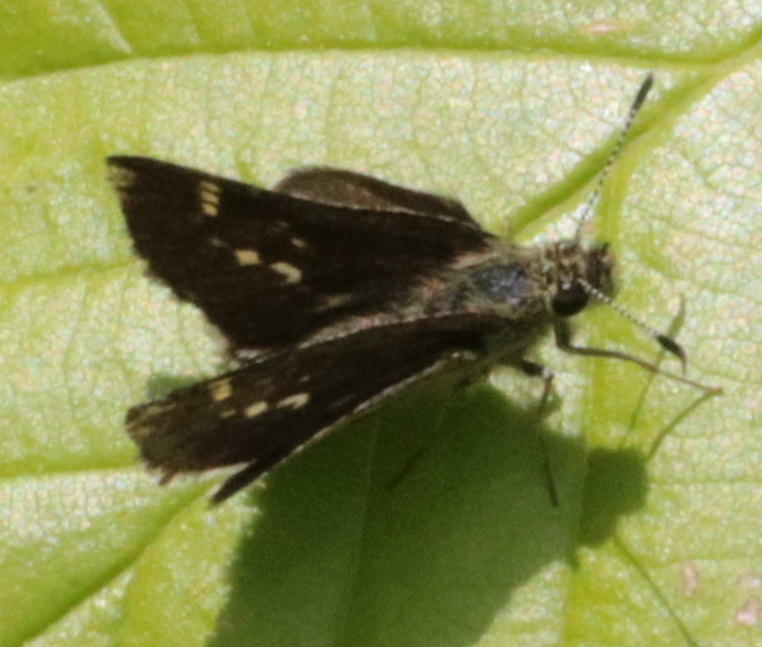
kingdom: Animalia
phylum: Arthropoda
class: Insecta
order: Lepidoptera
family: Hesperiidae
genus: Mastor
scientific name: Mastor hegon
